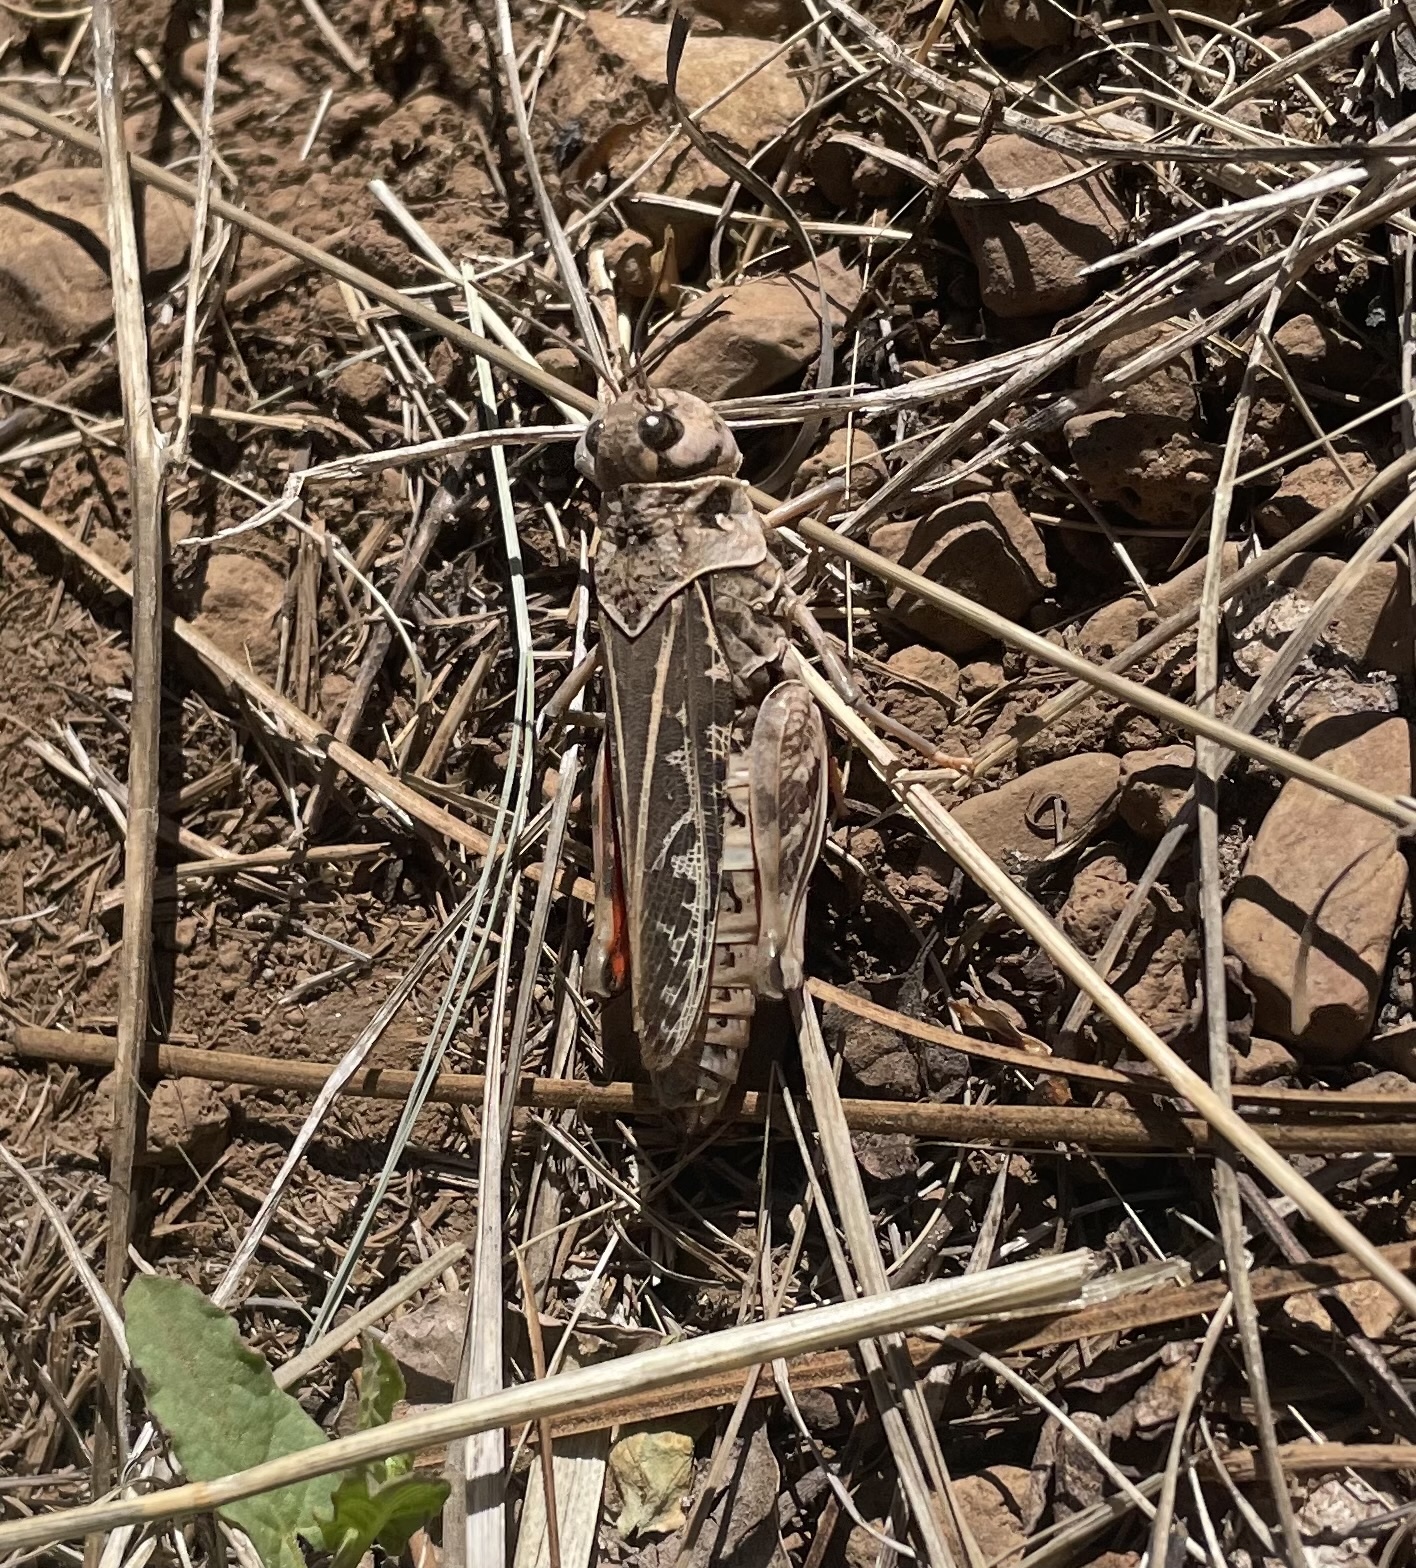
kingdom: Animalia
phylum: Arthropoda
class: Insecta
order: Orthoptera
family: Acrididae
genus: Xanthippus
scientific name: Xanthippus corallipes
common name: Redshanked grasshopper
